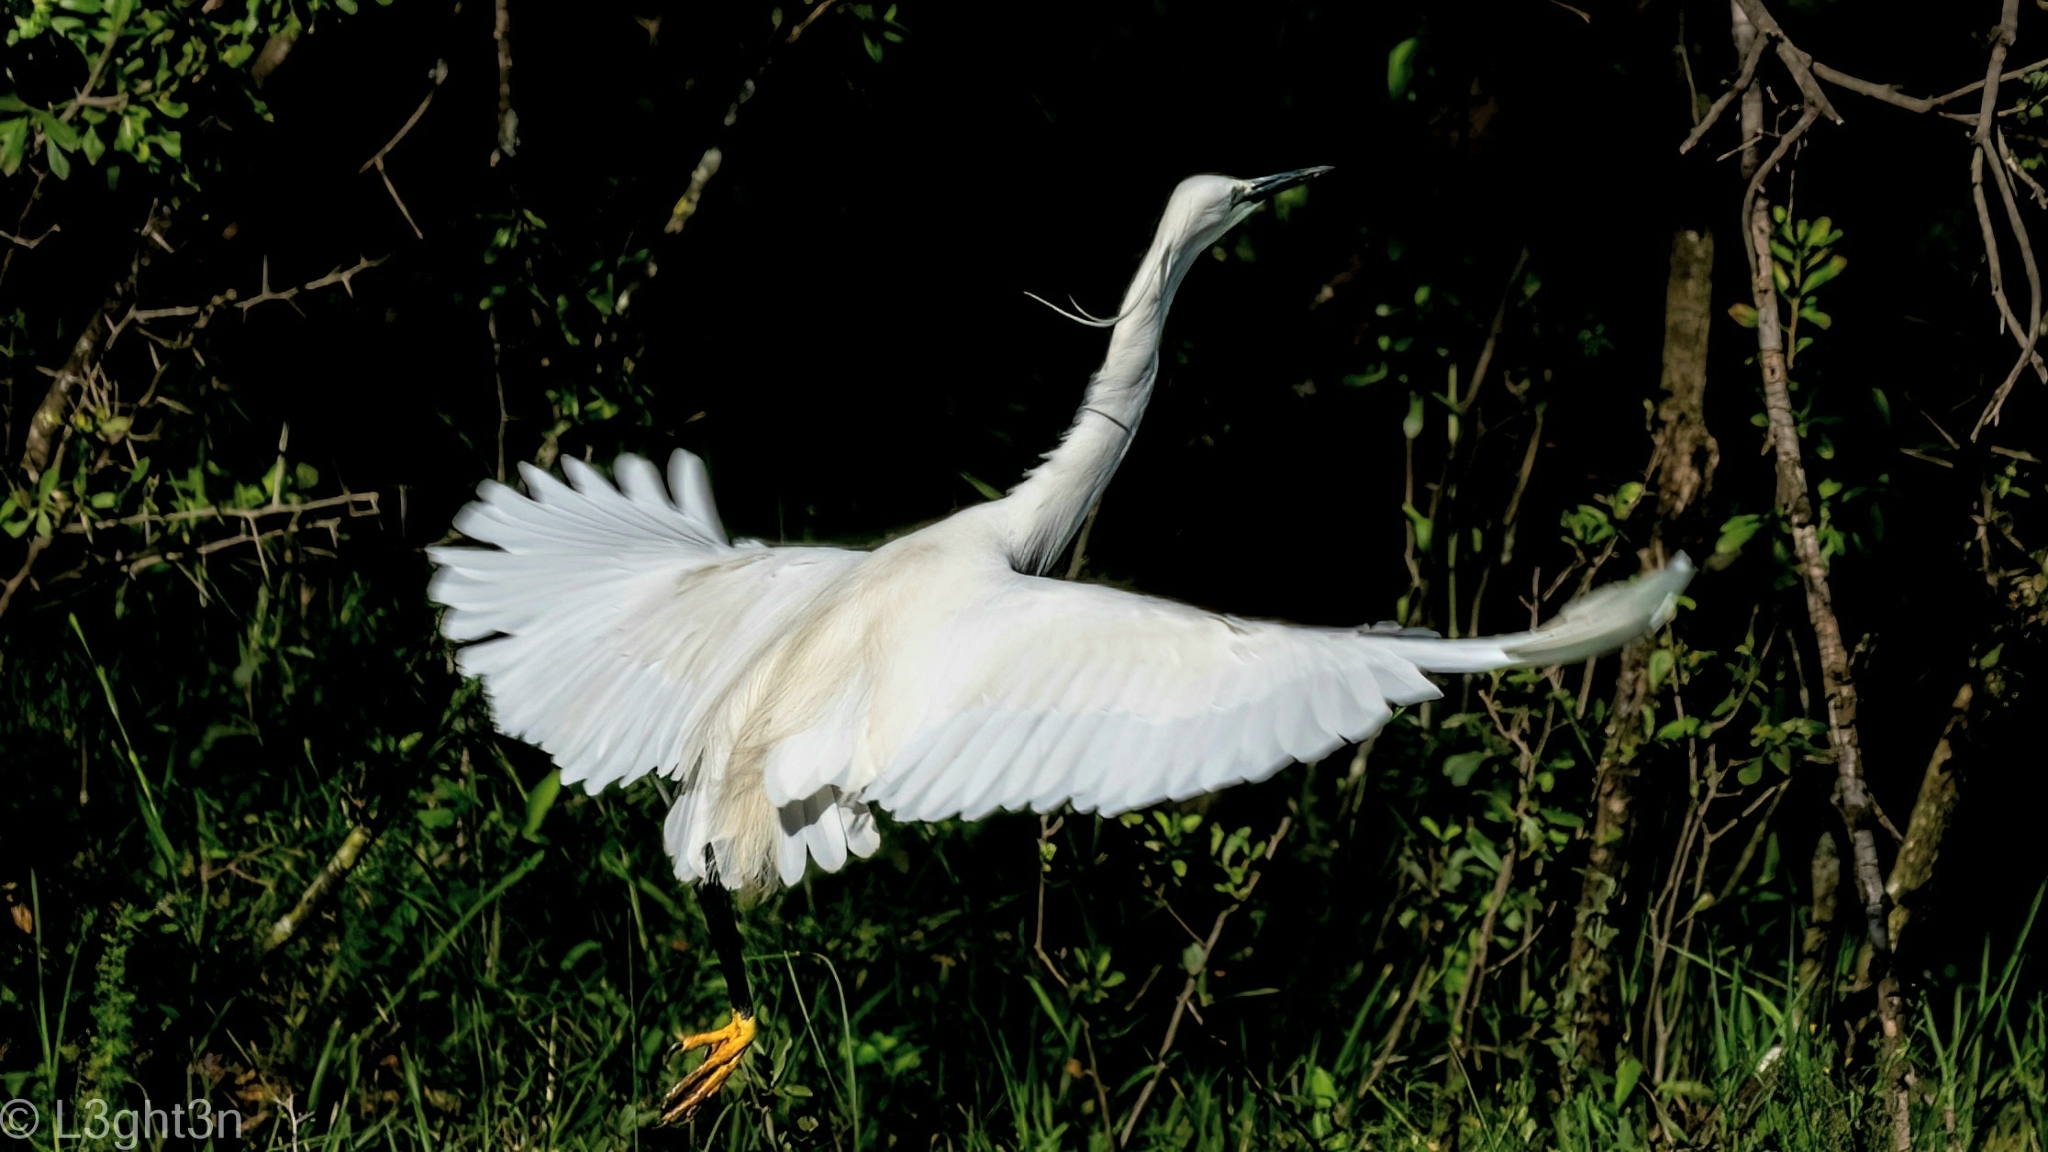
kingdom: Animalia
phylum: Chordata
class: Aves
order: Pelecaniformes
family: Ardeidae
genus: Egretta
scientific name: Egretta garzetta
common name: Little egret
